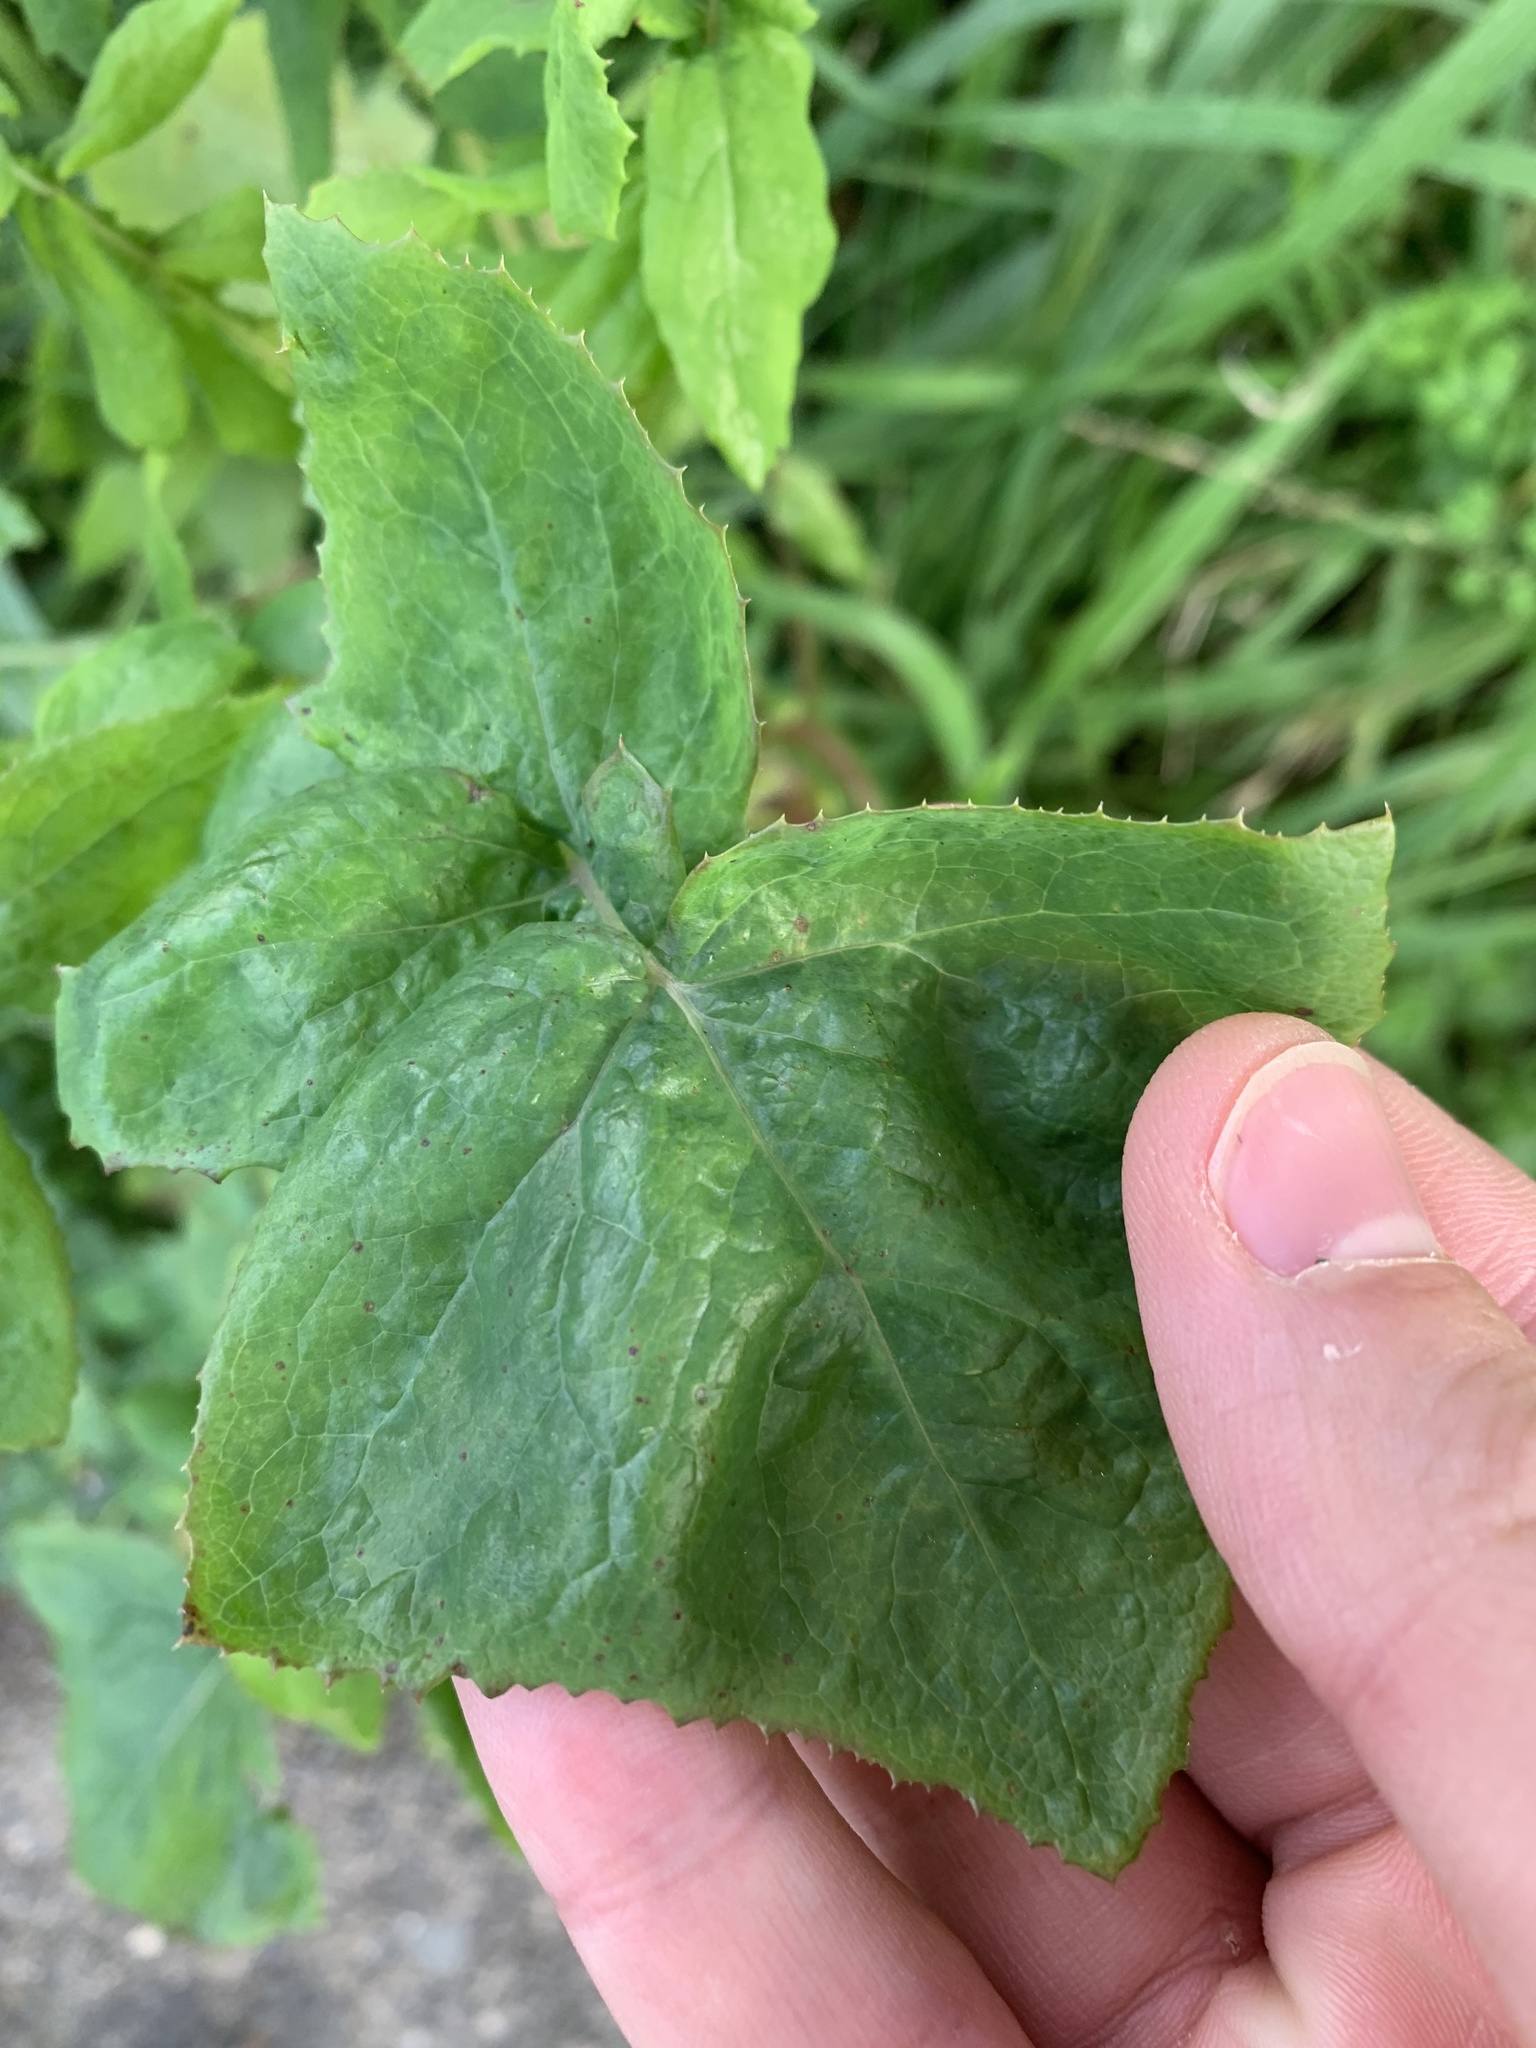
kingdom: Plantae
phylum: Tracheophyta
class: Magnoliopsida
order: Asterales
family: Asteraceae
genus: Sonchus
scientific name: Sonchus oleraceus
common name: Common sowthistle
